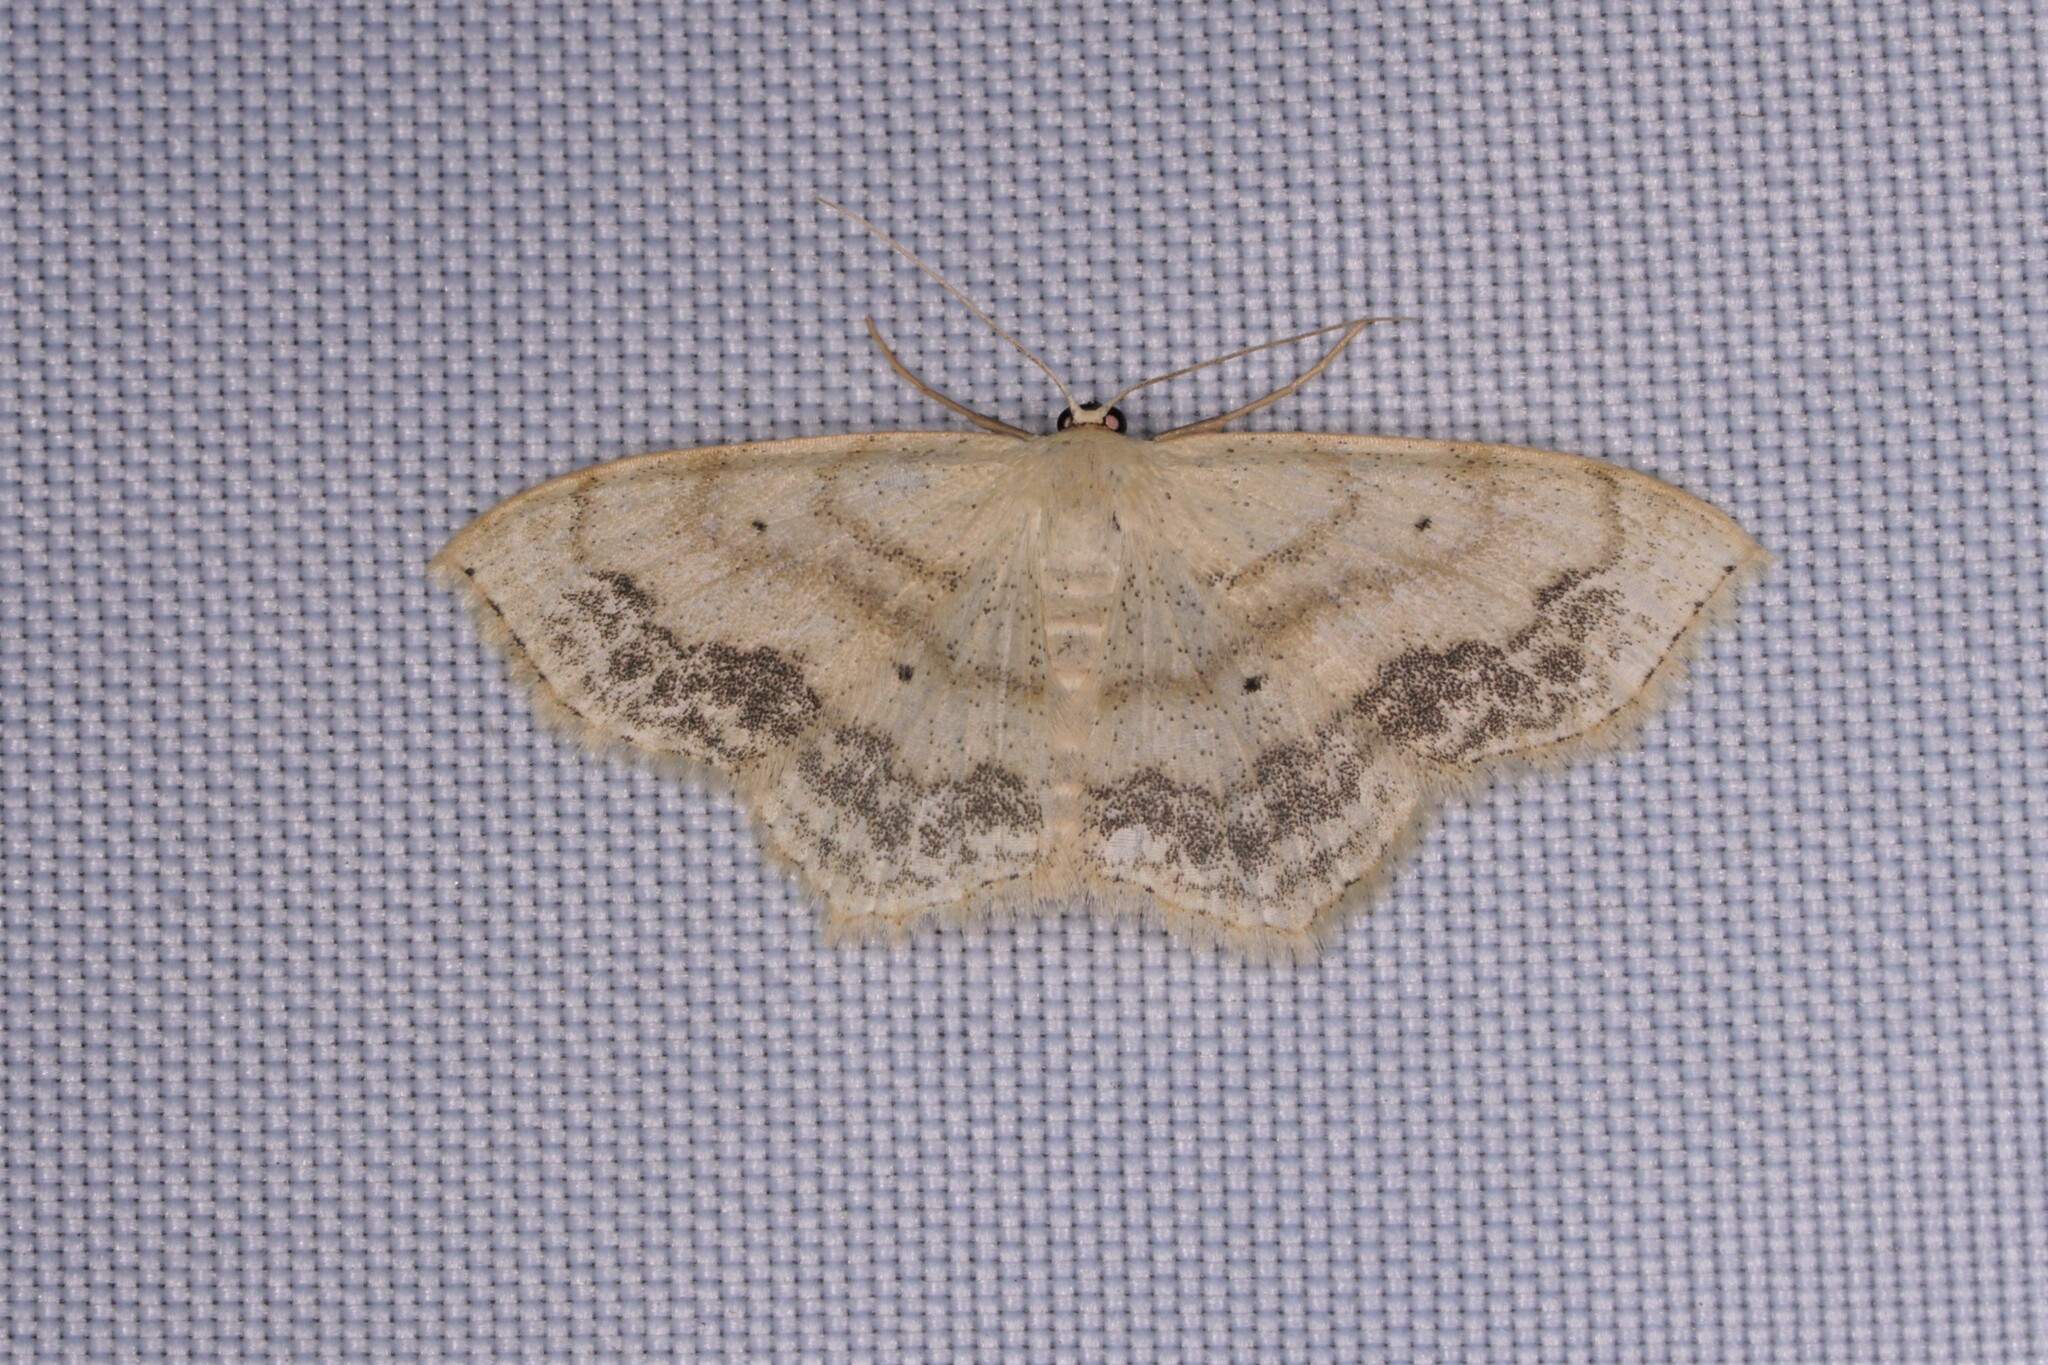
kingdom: Animalia
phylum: Arthropoda
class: Insecta
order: Lepidoptera
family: Geometridae
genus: Scopula
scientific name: Scopula limboundata
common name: Large lace border
